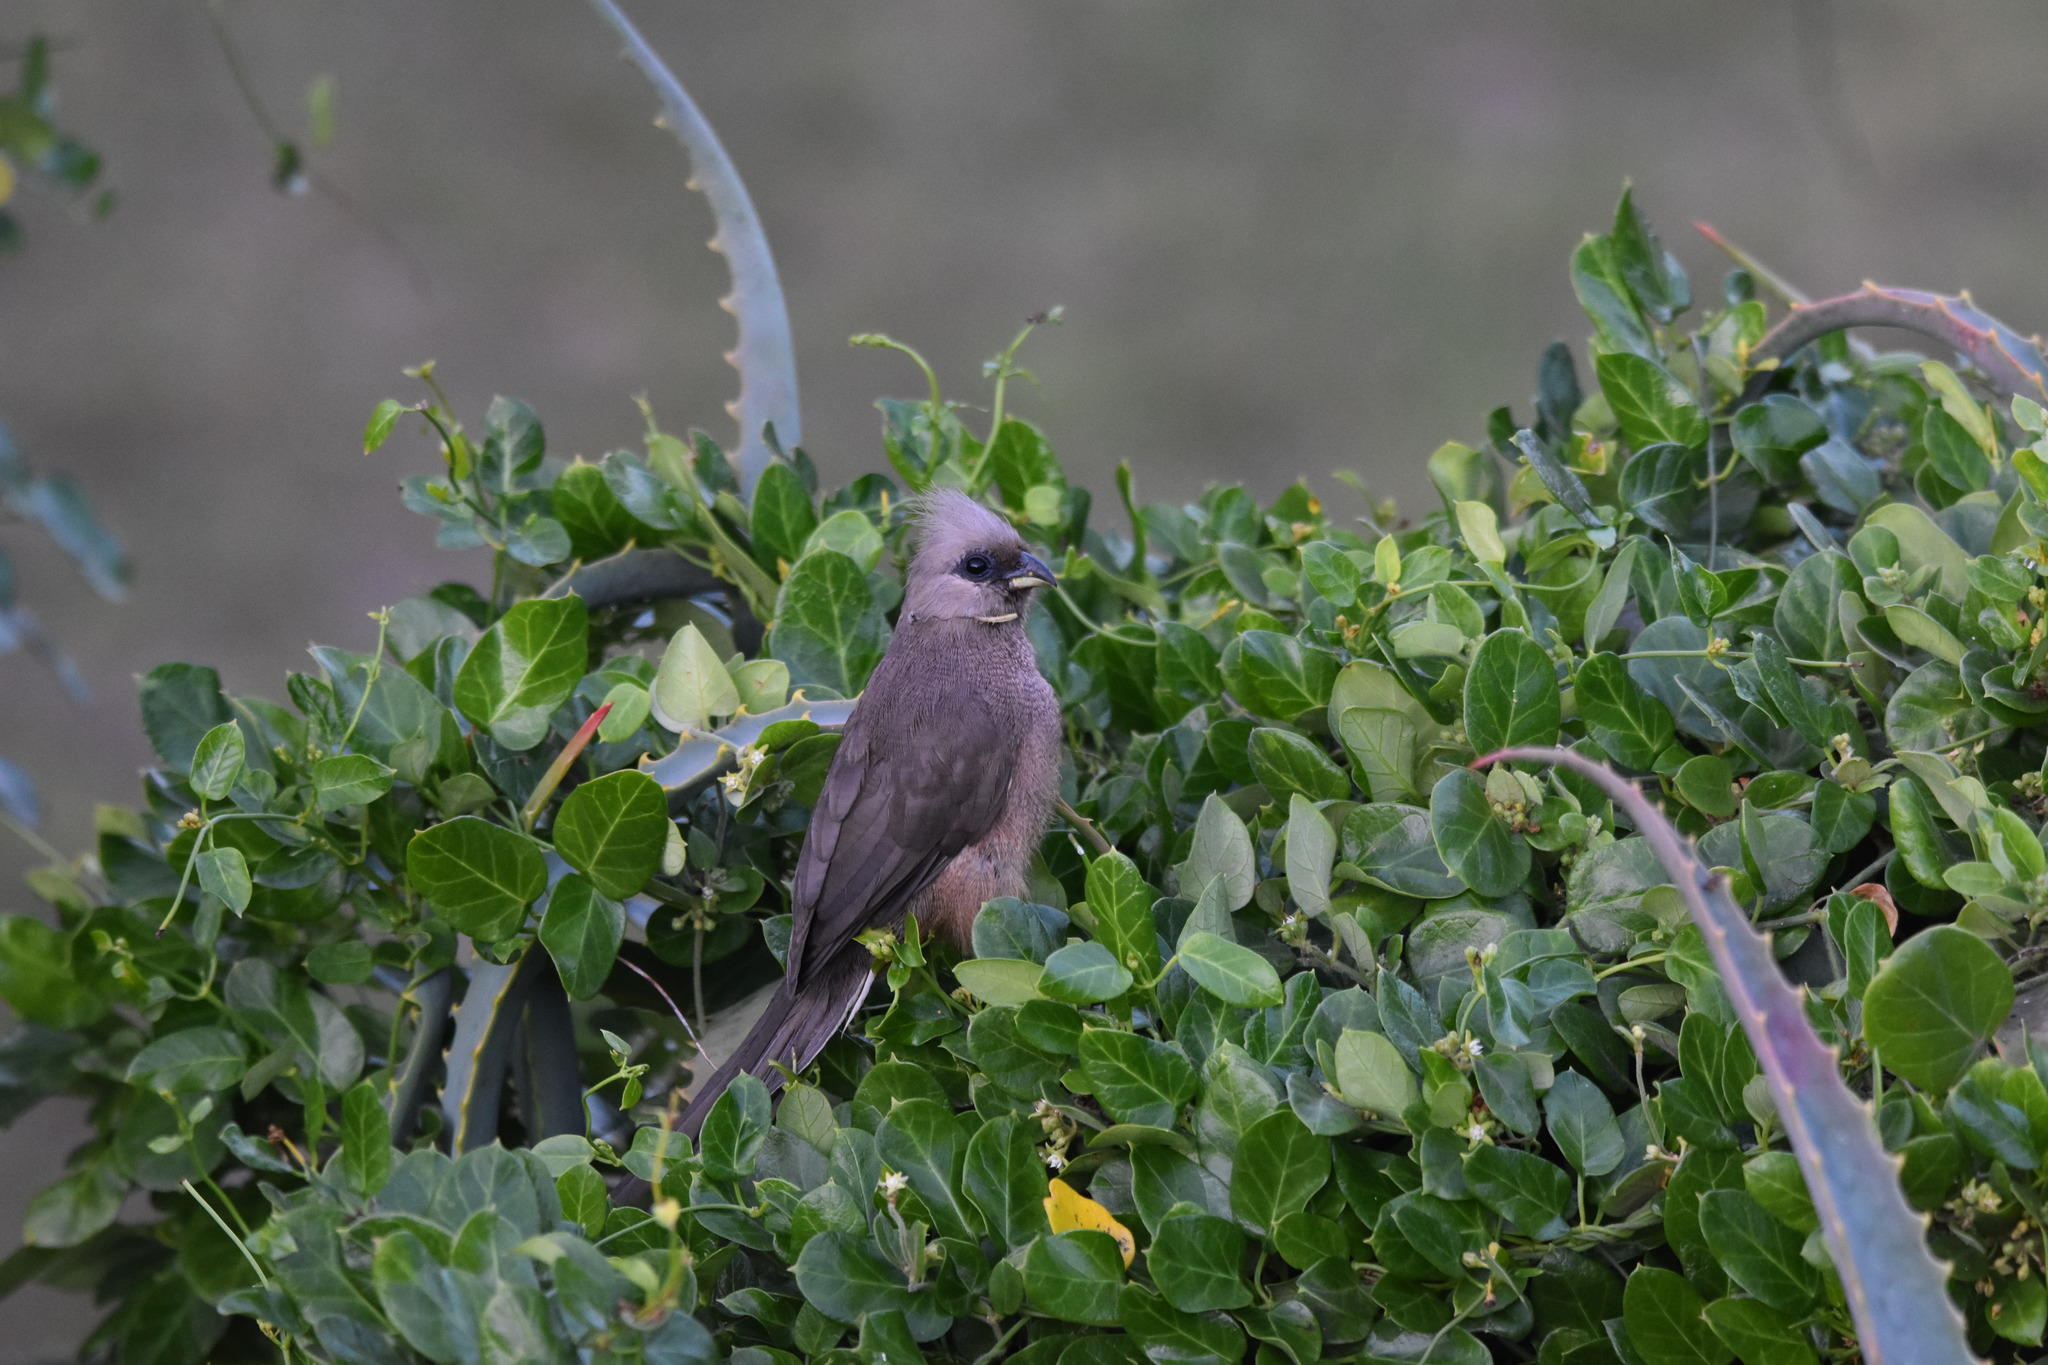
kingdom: Animalia
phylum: Chordata
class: Aves
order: Coliiformes
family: Coliidae
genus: Colius
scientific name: Colius striatus
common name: Speckled mousebird
